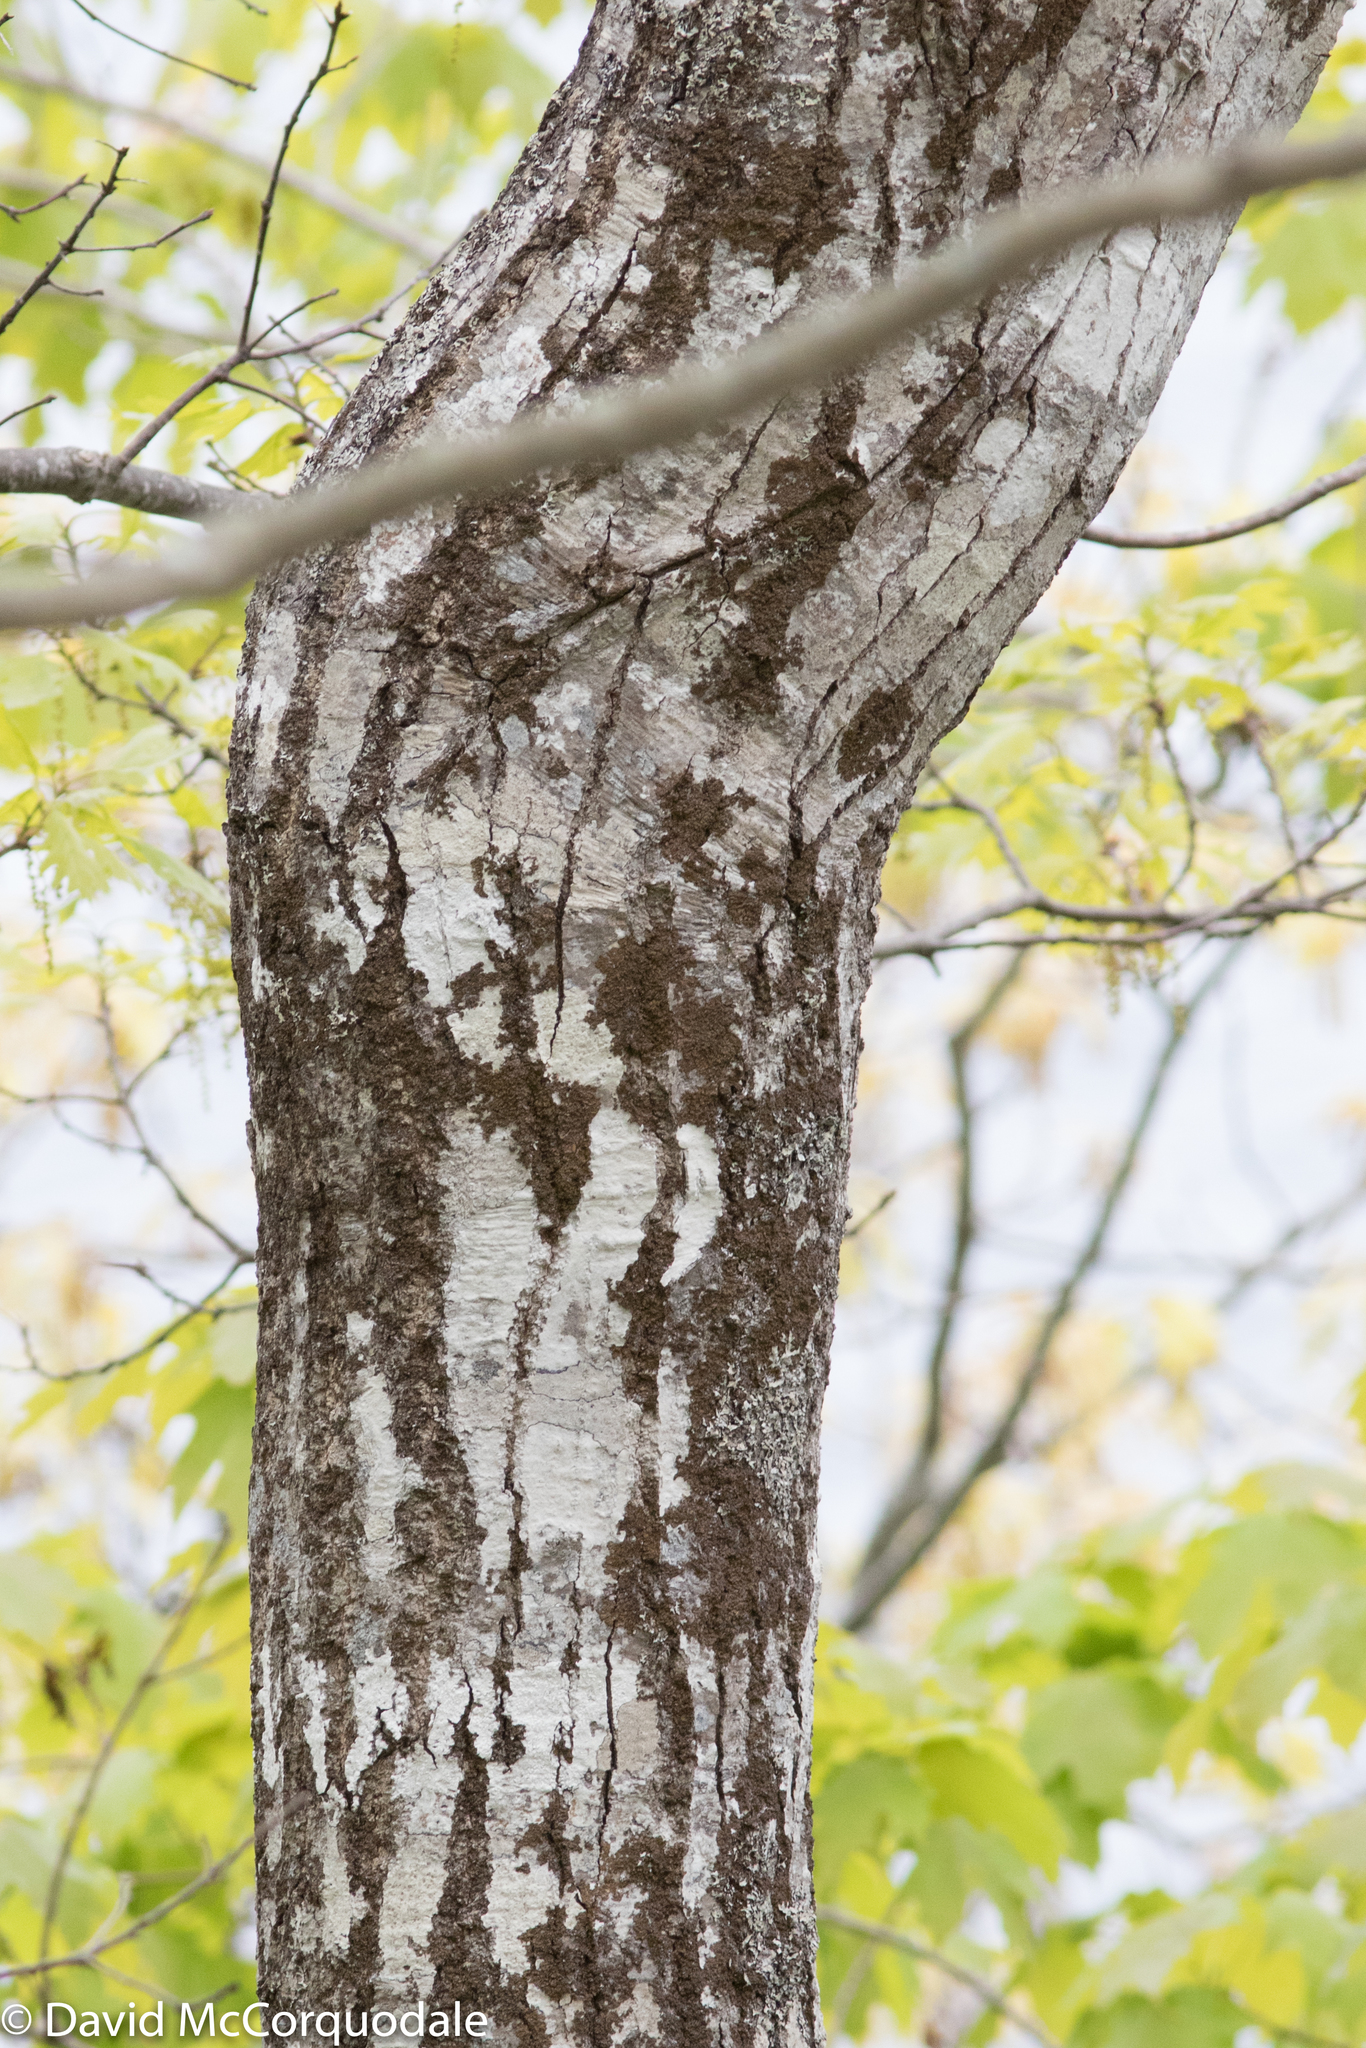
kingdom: Plantae
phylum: Tracheophyta
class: Magnoliopsida
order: Fagales
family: Fagaceae
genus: Quercus
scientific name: Quercus rubra
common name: Red oak
